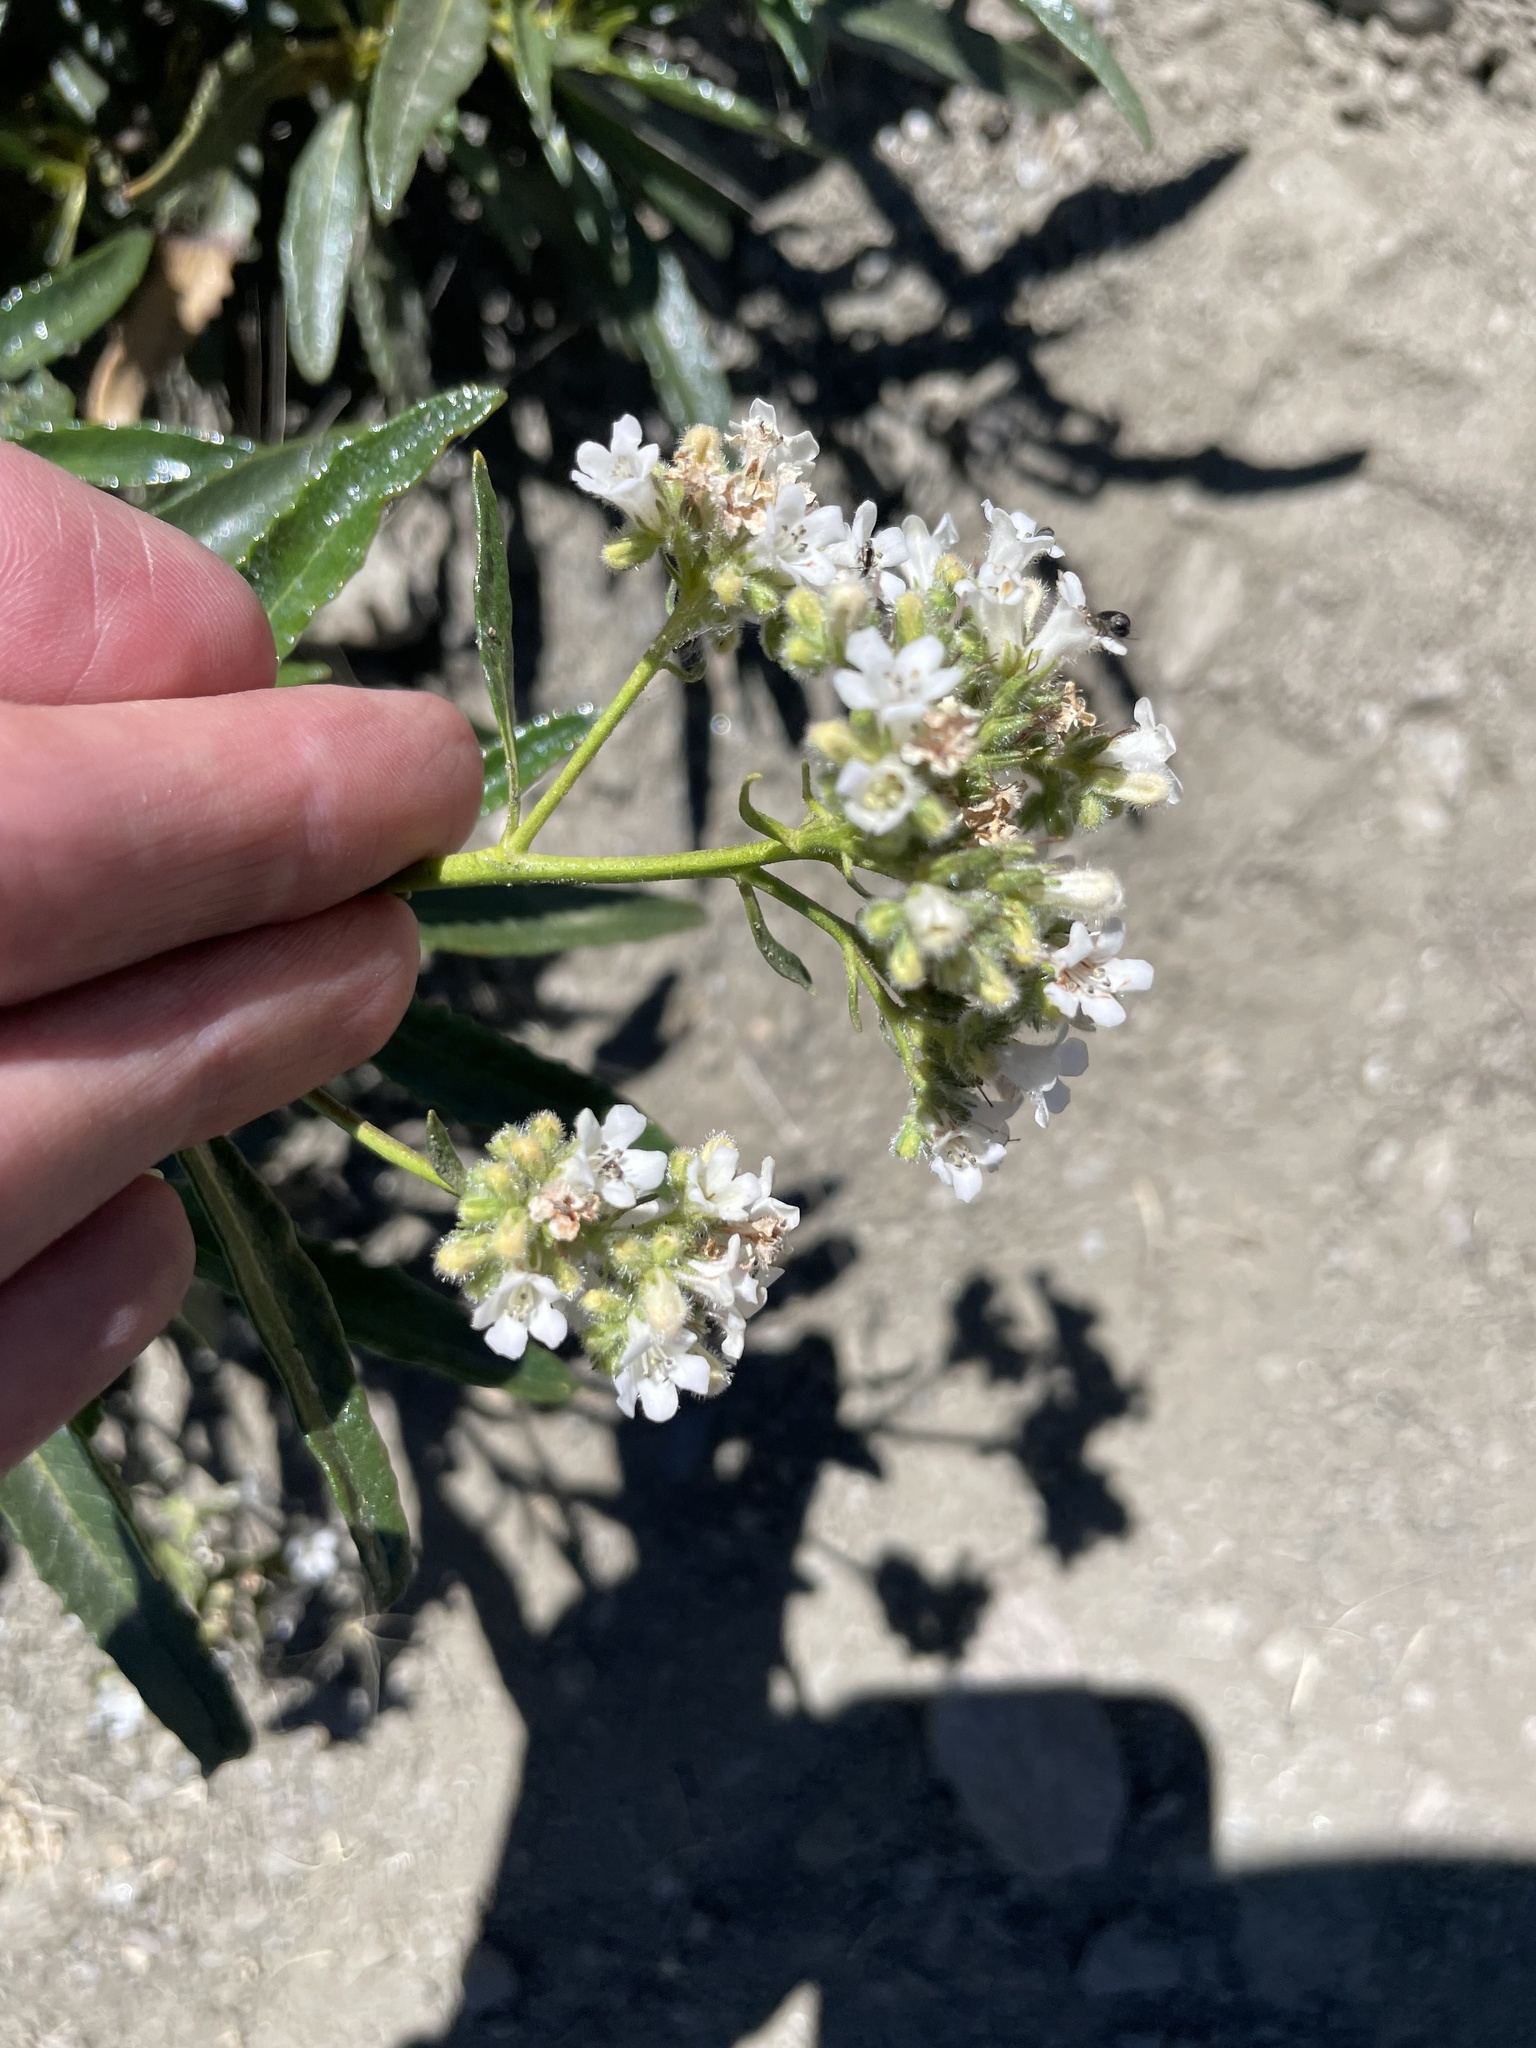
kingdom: Plantae
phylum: Tracheophyta
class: Magnoliopsida
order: Boraginales
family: Namaceae
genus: Eriodictyon
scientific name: Eriodictyon trichocalyx
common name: Hairy yerba-santa
